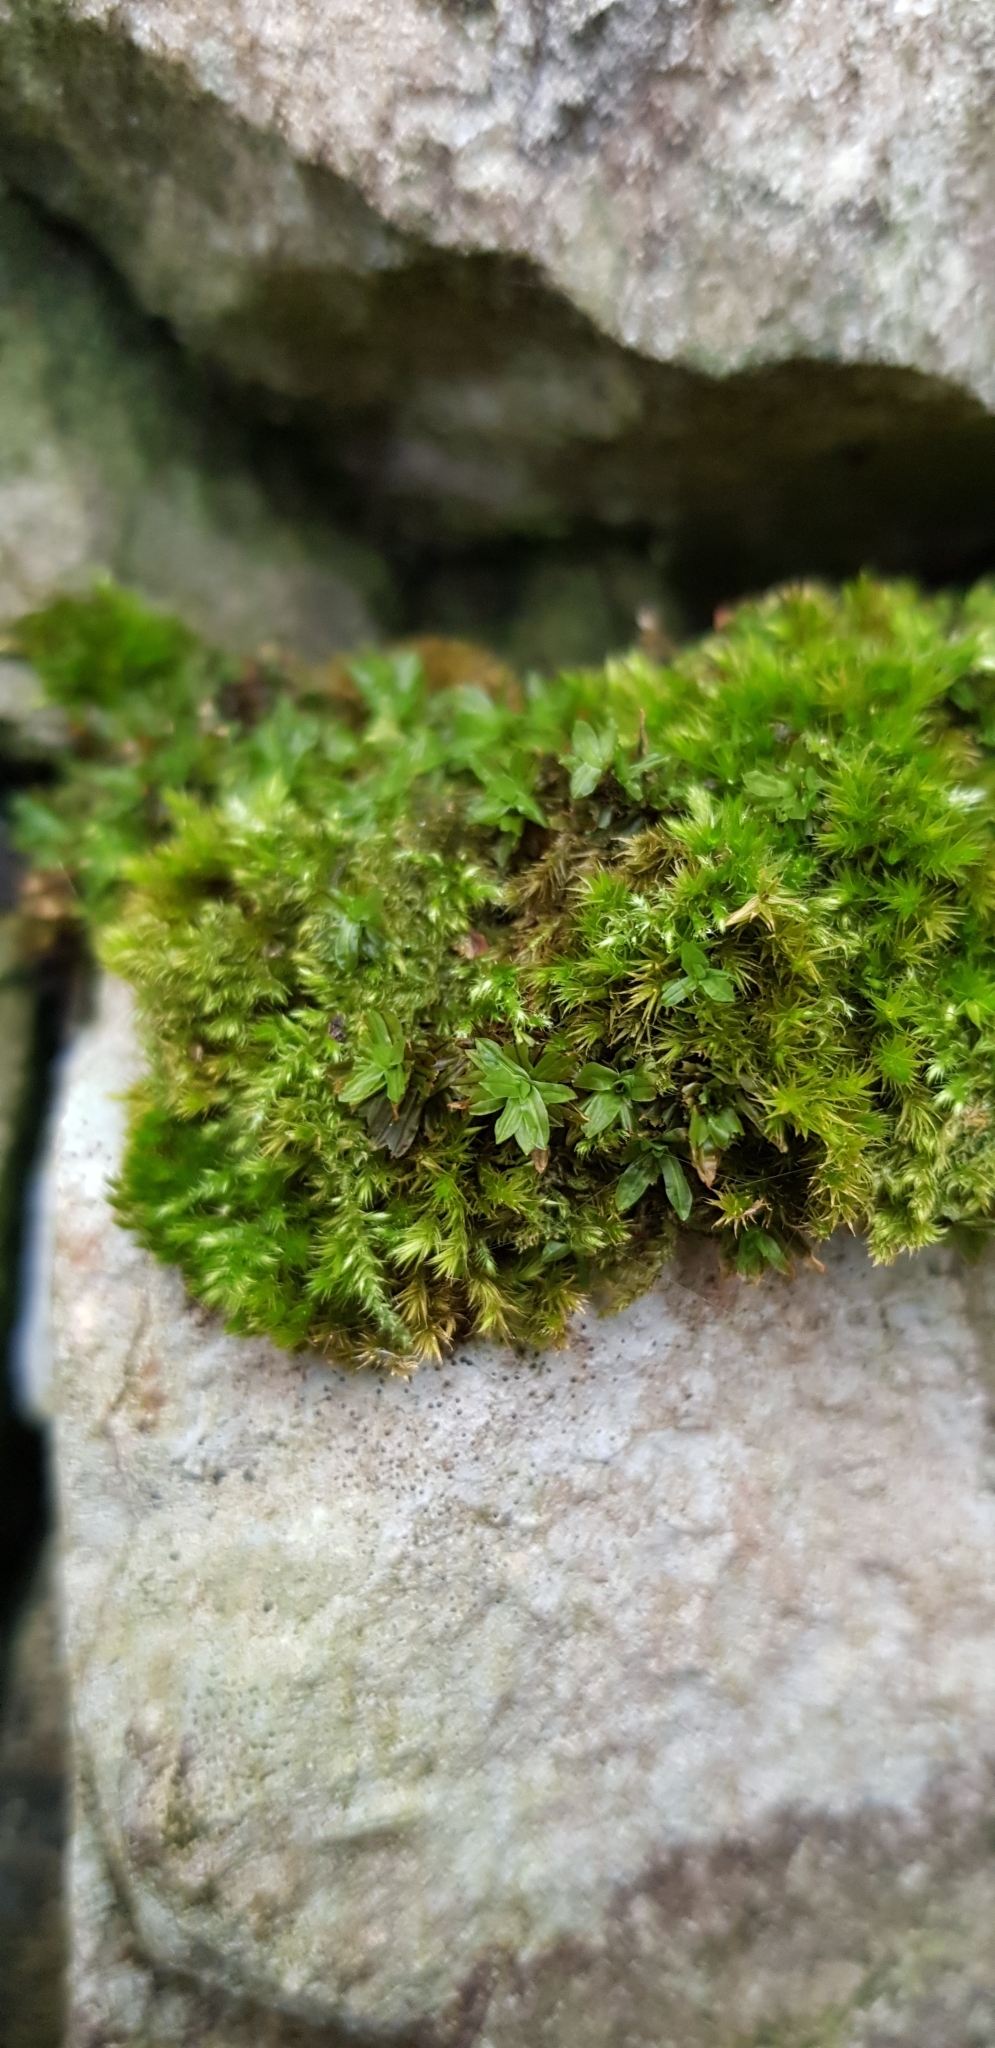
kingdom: Plantae
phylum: Bryophyta
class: Bryopsida
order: Encalyptales
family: Encalyptaceae
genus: Encalypta
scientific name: Encalypta streptocarpa
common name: Spiral extinguisher-moss
